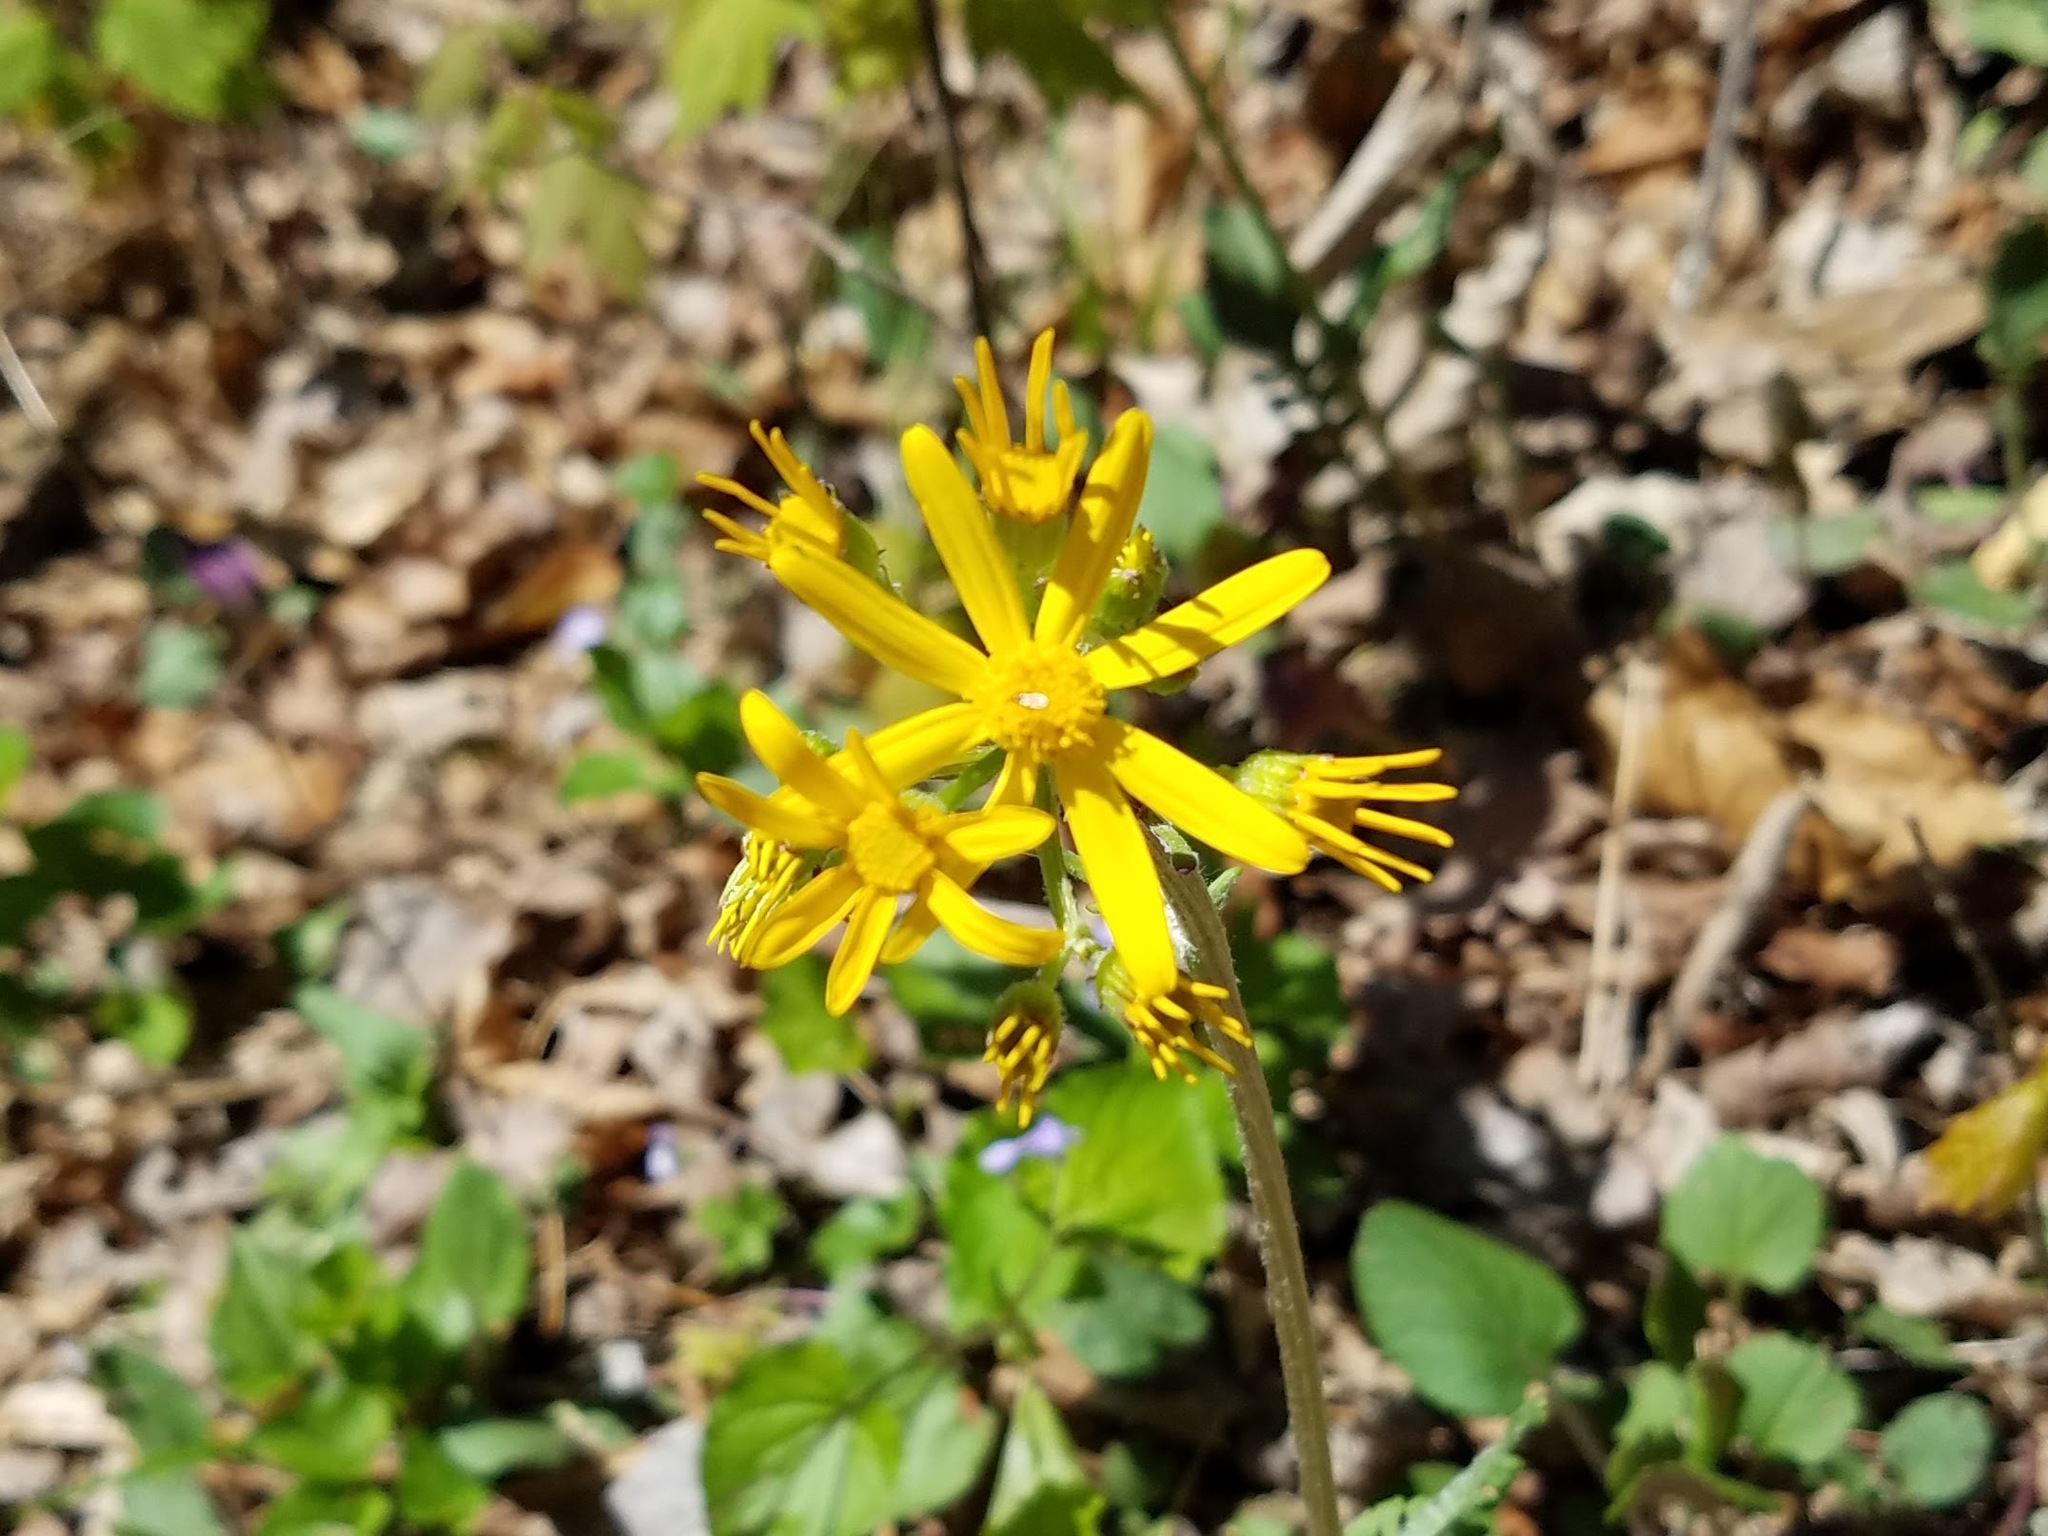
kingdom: Plantae
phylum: Tracheophyta
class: Magnoliopsida
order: Asterales
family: Asteraceae
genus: Packera
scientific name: Packera obovata
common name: Round-leaf ragwort
